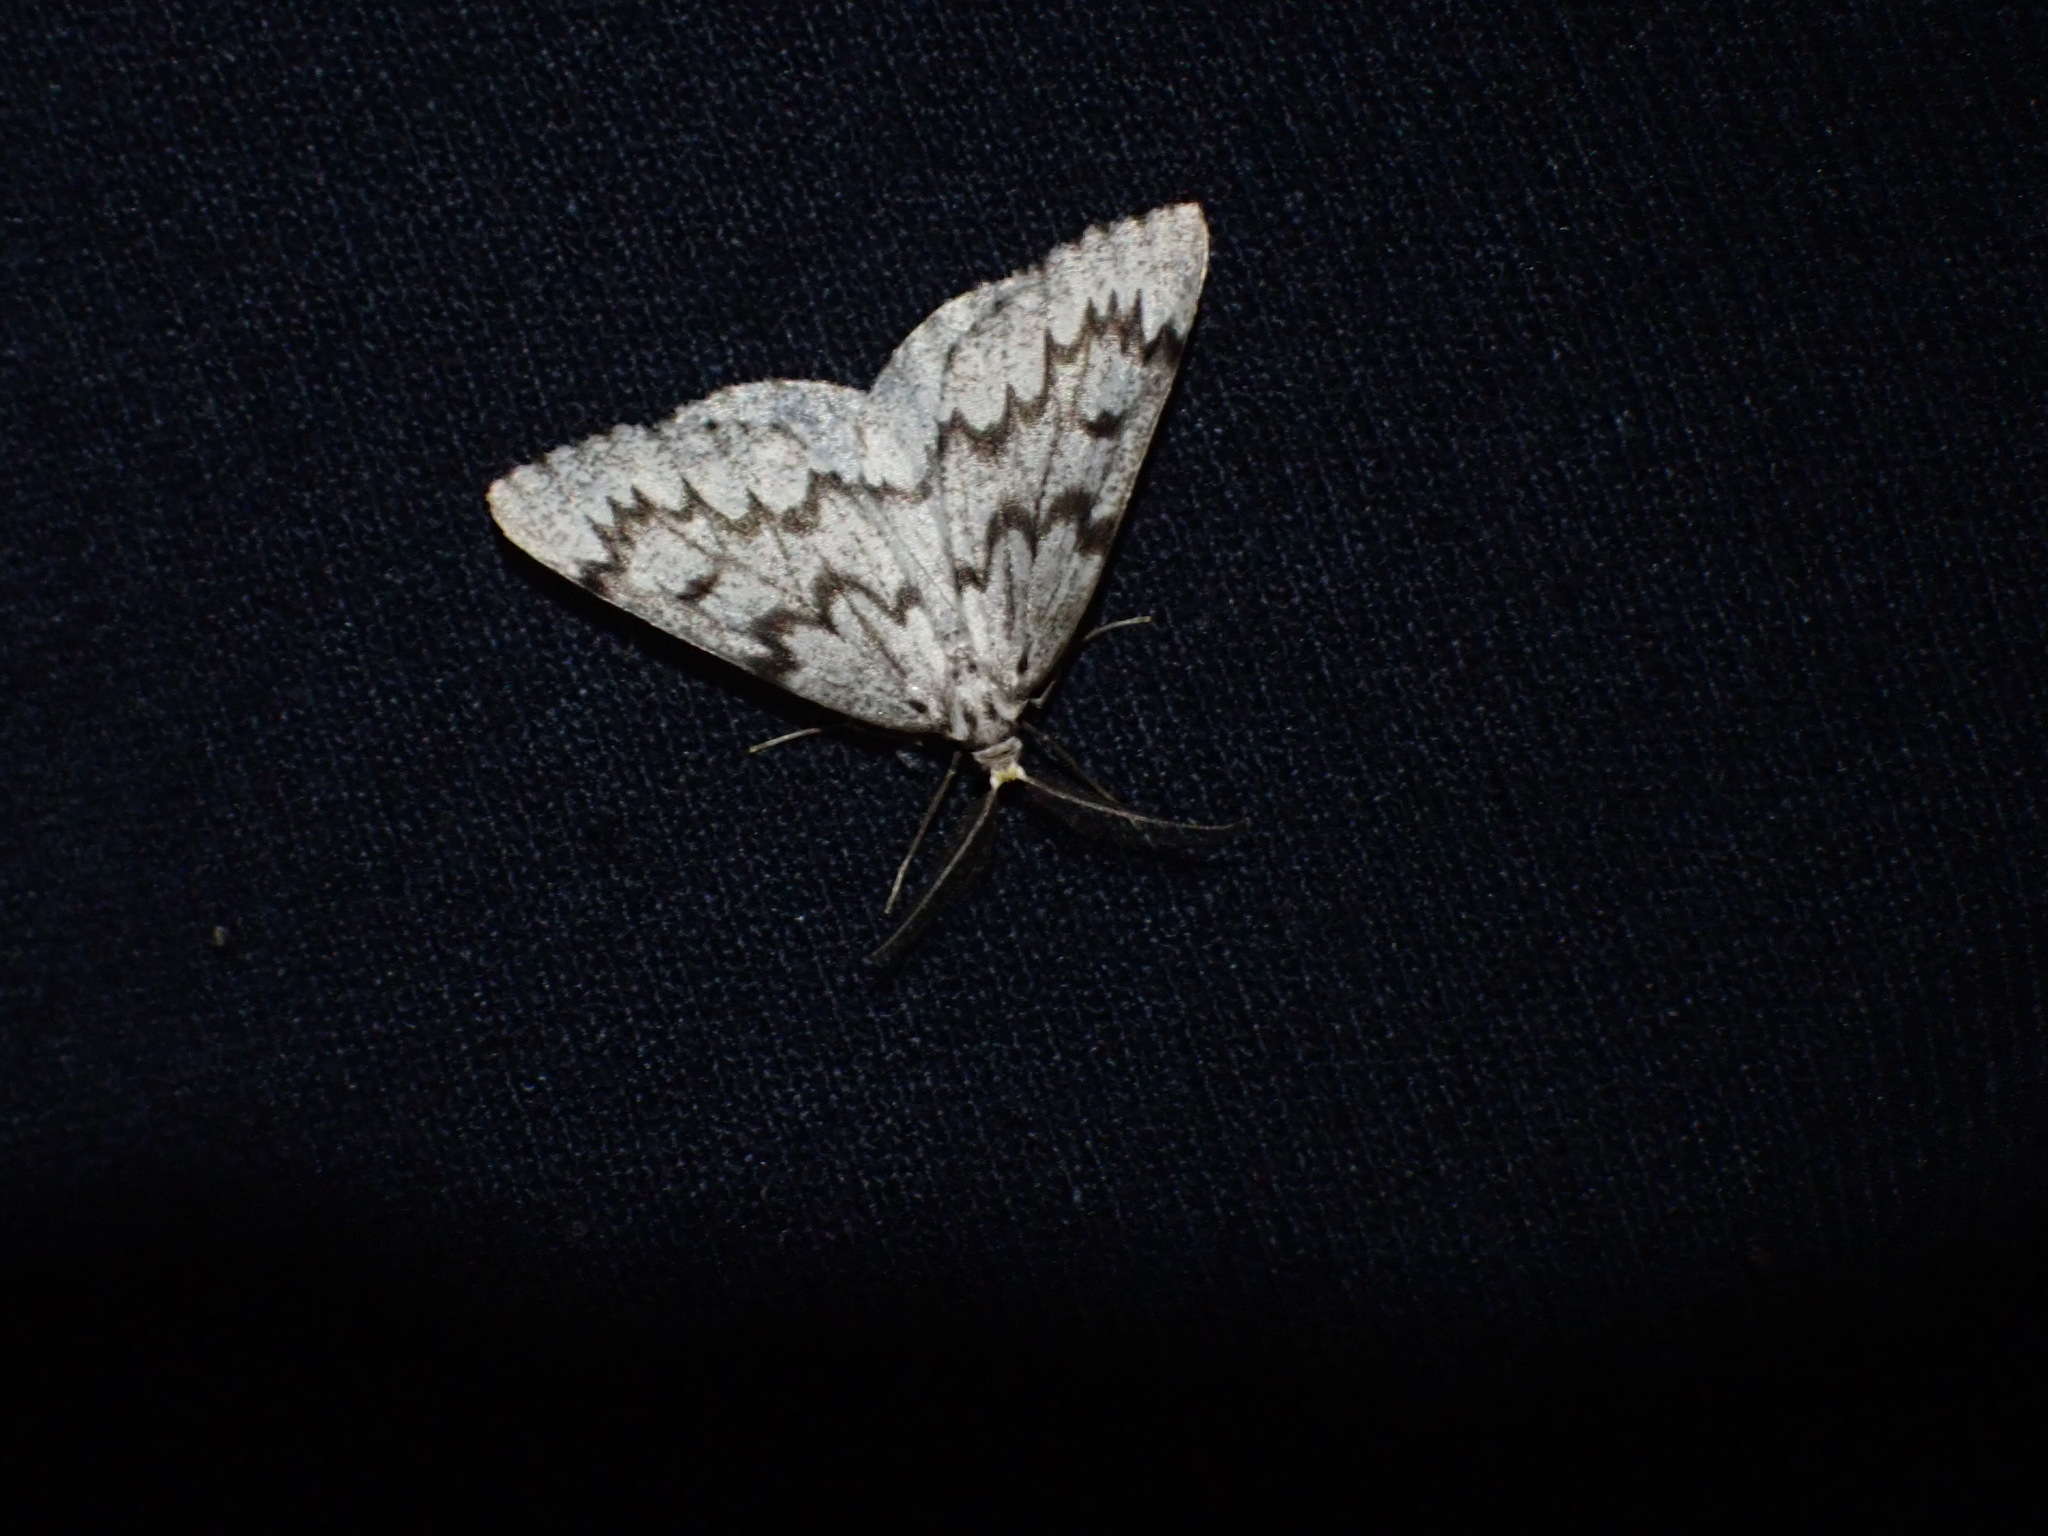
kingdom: Animalia
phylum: Arthropoda
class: Insecta
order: Lepidoptera
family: Geometridae
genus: Nepytia
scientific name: Nepytia canosaria
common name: False hemlock looper
